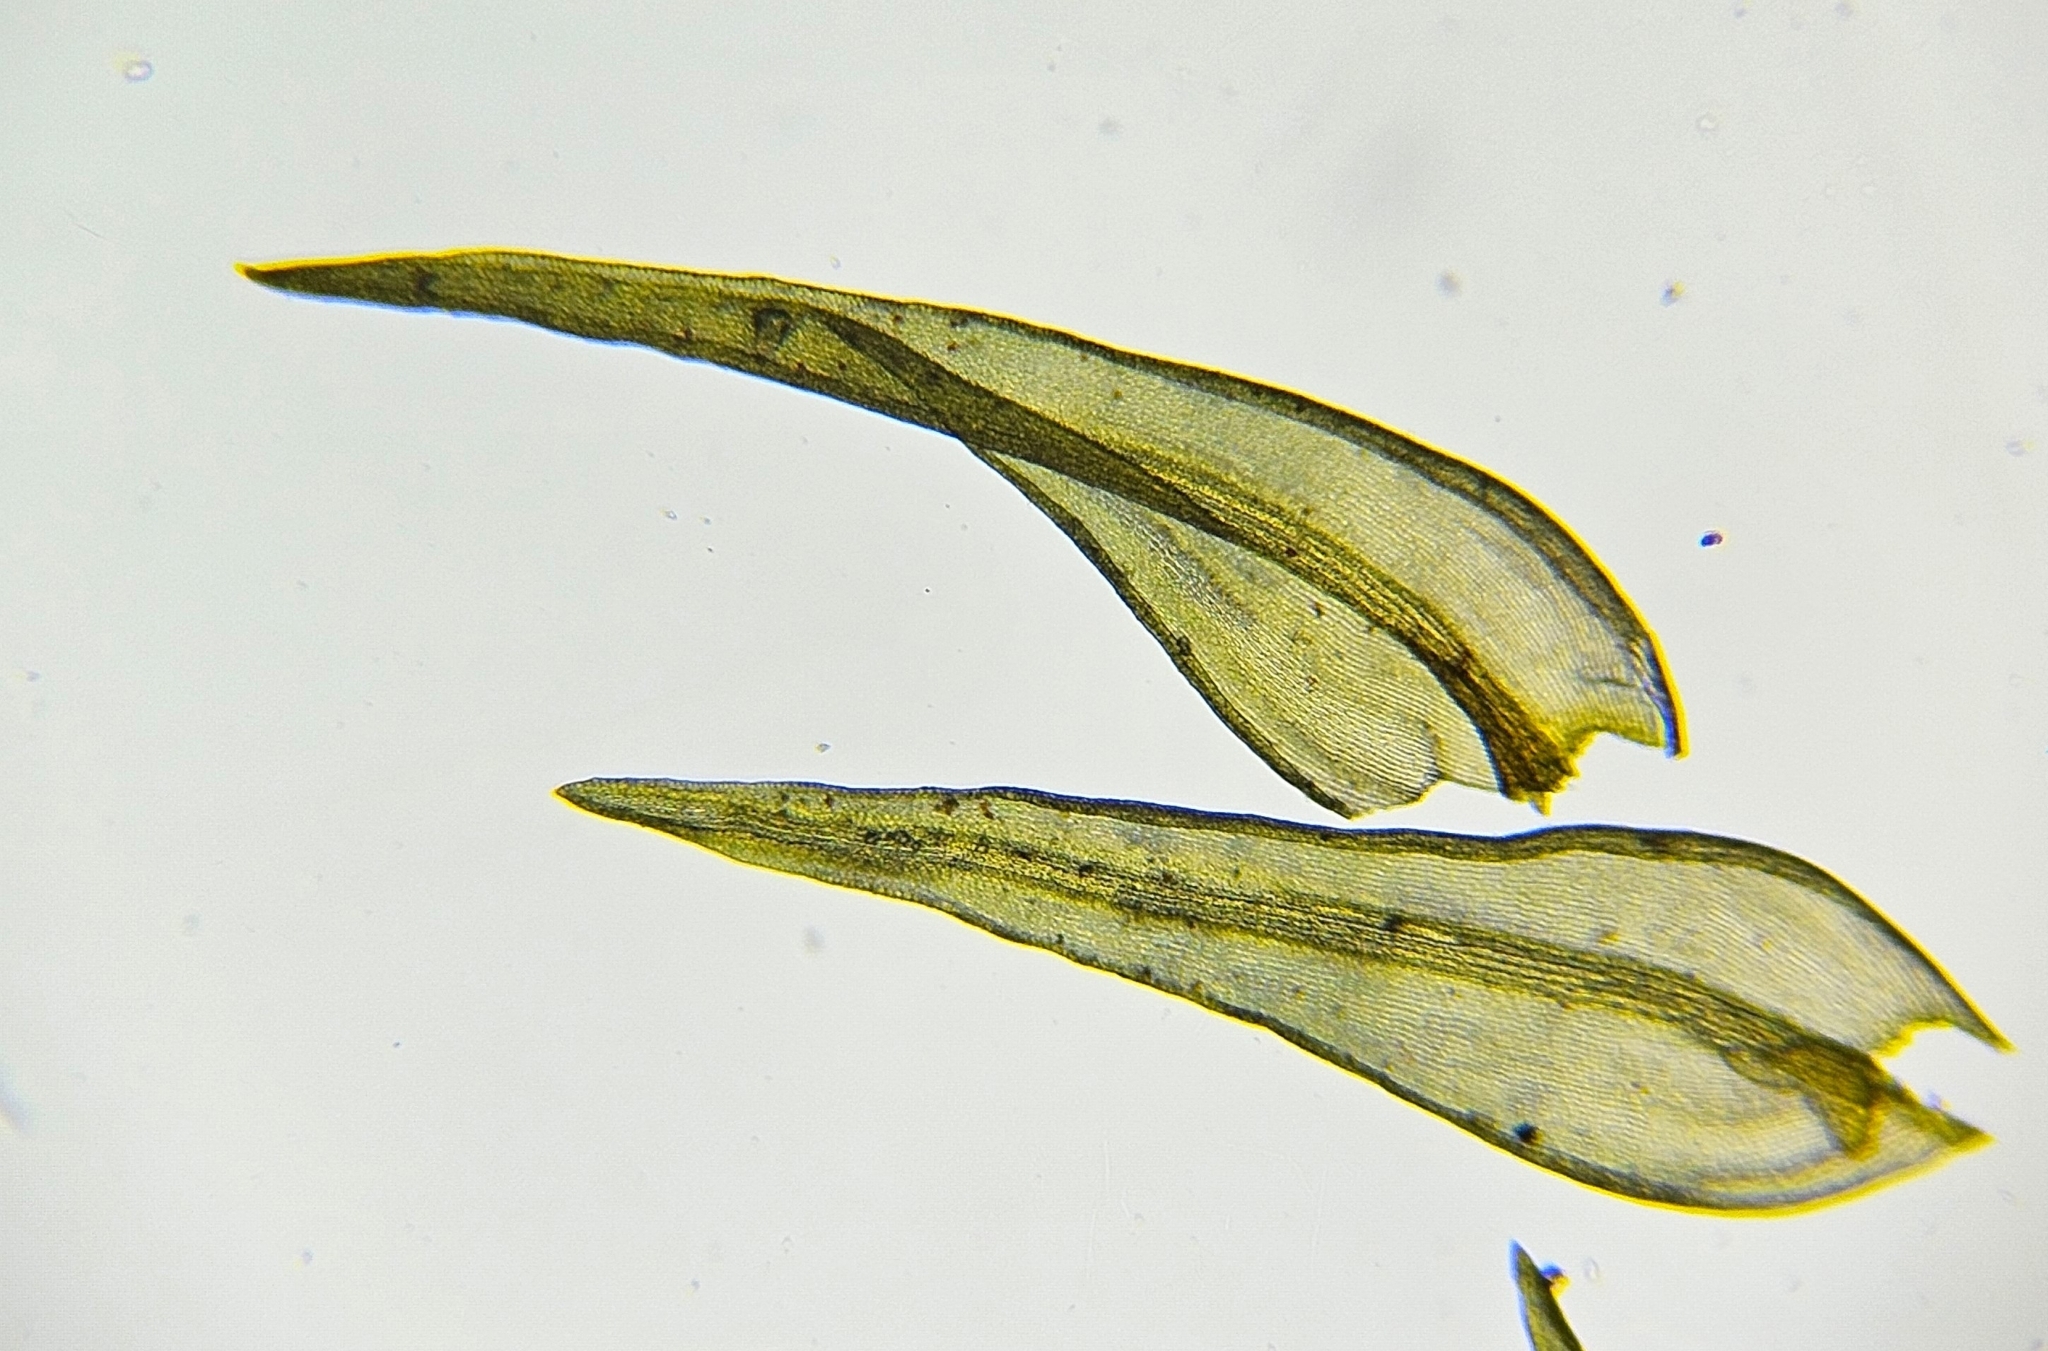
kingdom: Plantae
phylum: Bryophyta
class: Bryopsida
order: Grimmiales
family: Grimmiaceae
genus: Bucklandiella
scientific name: Bucklandiella obtusa
